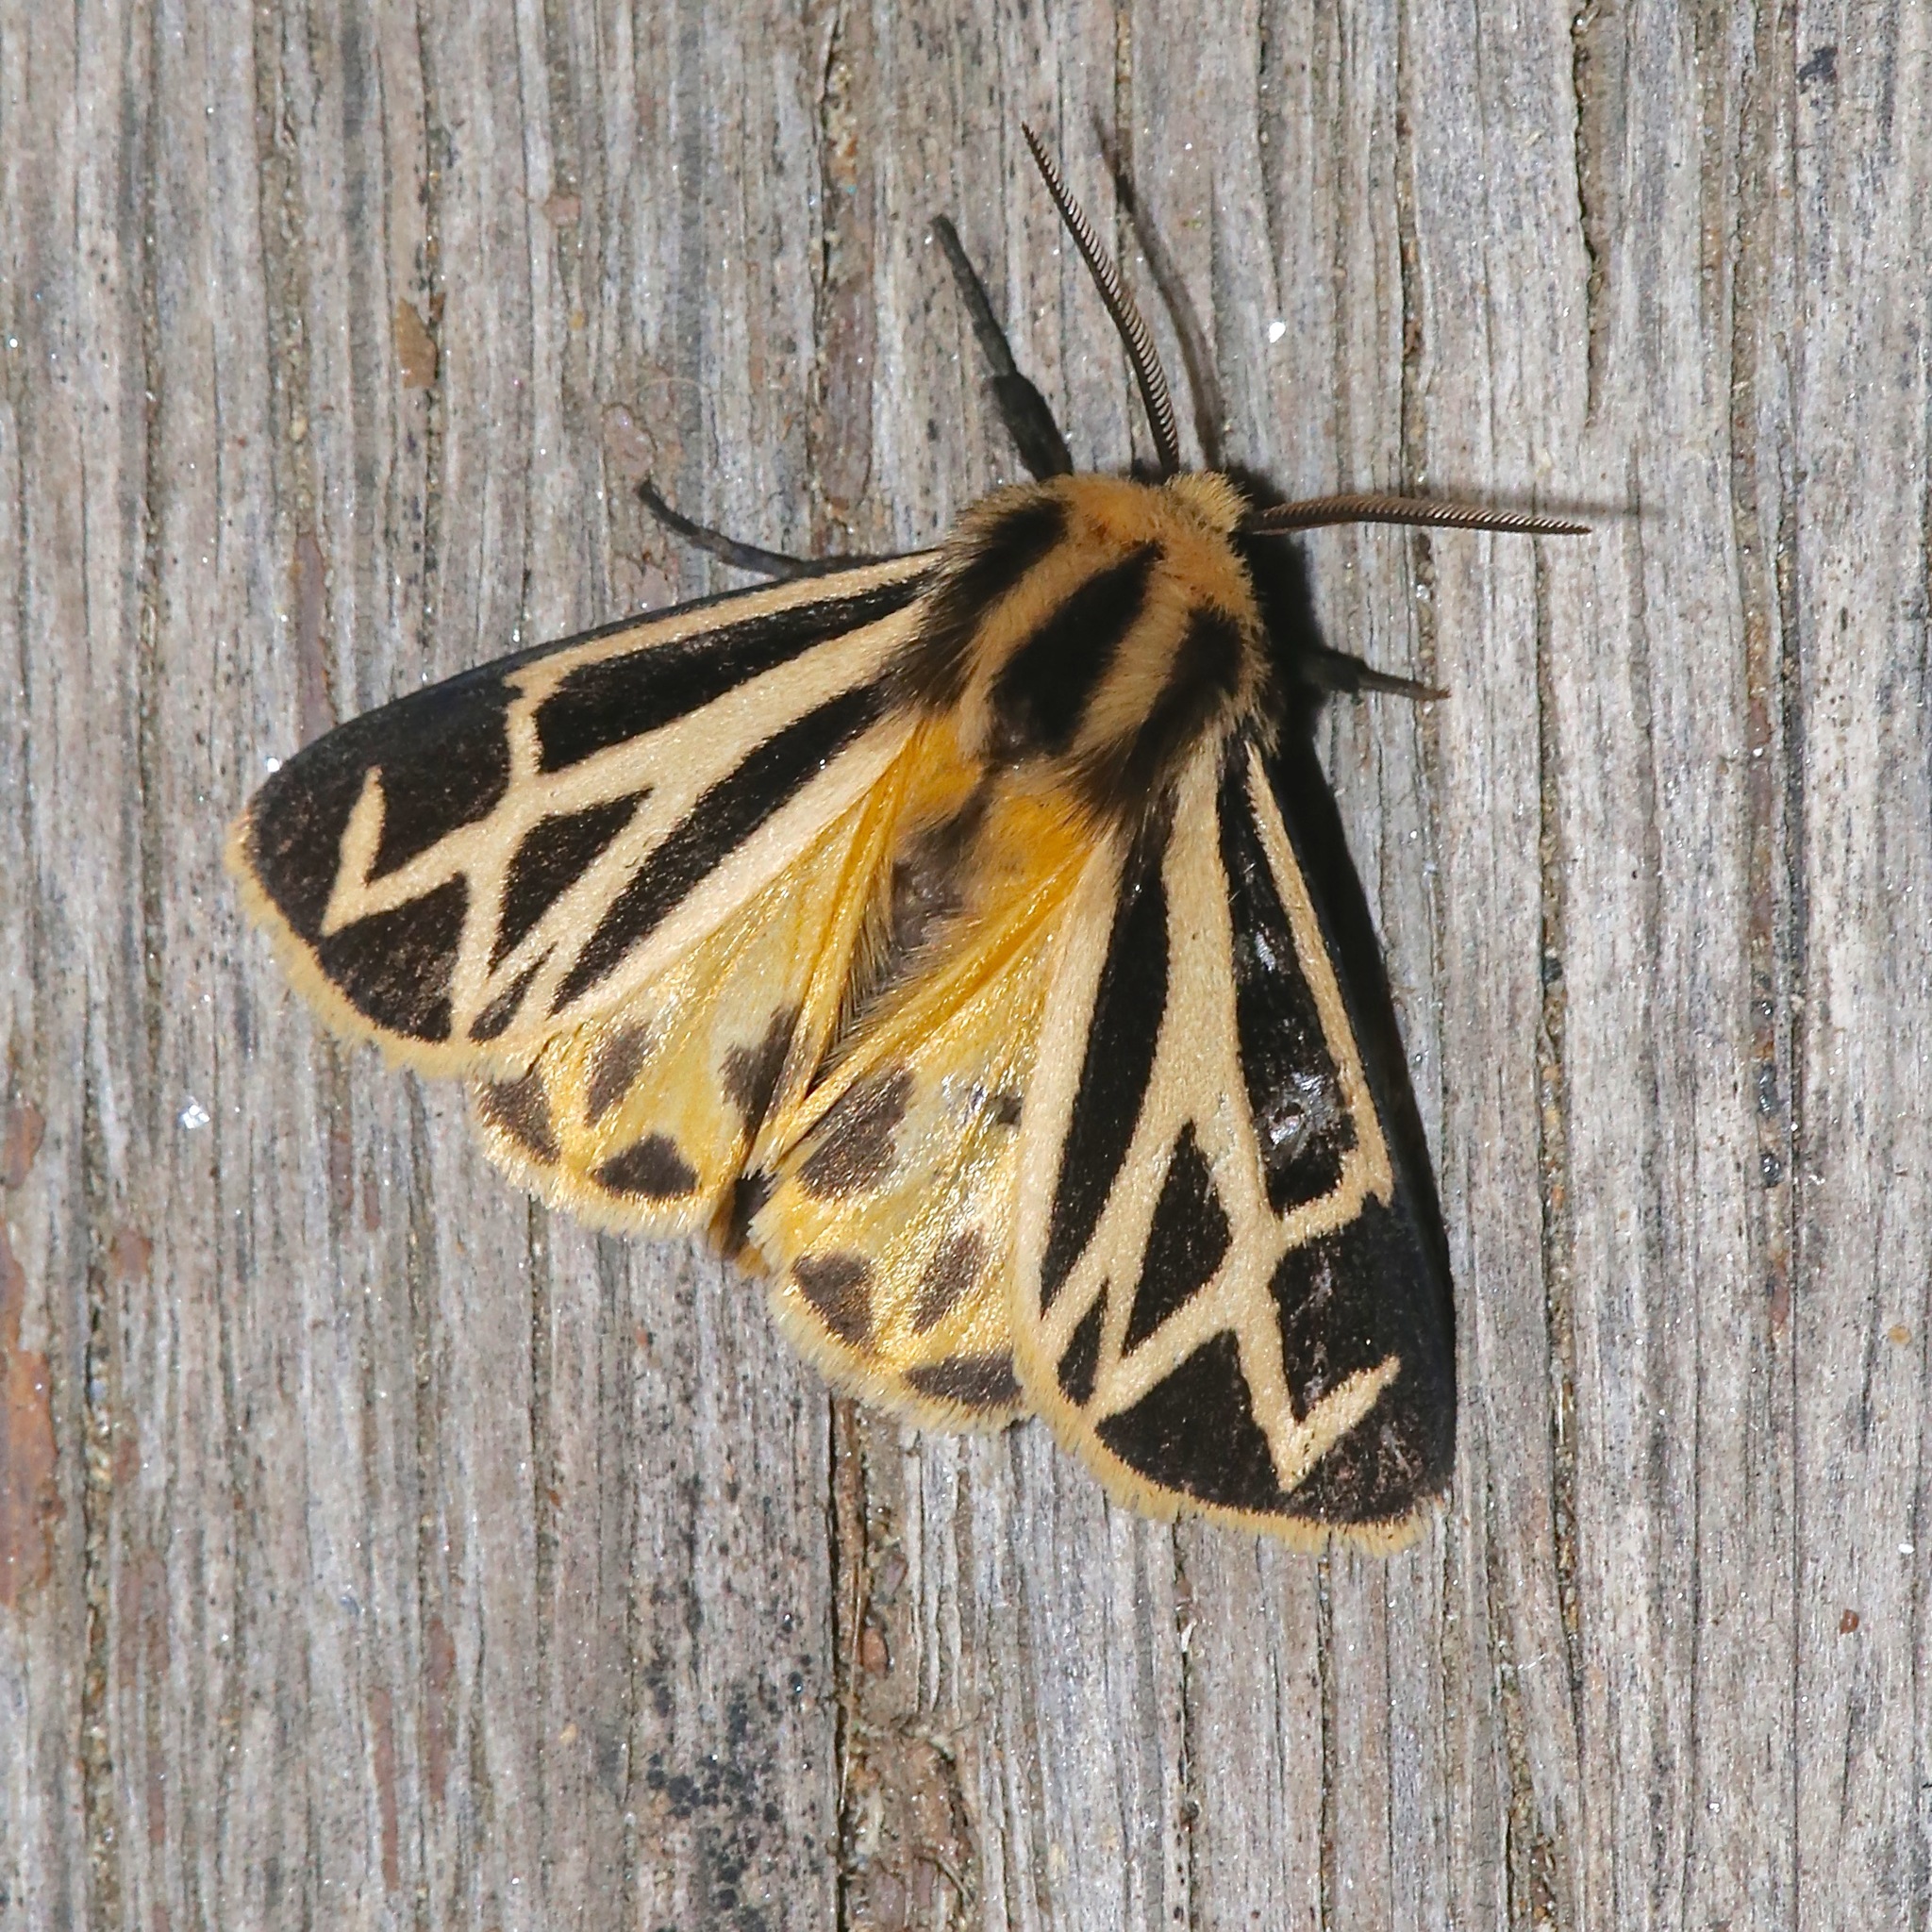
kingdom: Animalia
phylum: Arthropoda
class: Insecta
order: Lepidoptera
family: Erebidae
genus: Apantesis
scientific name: Apantesis carlotta
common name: Carlotta's tiger moth
